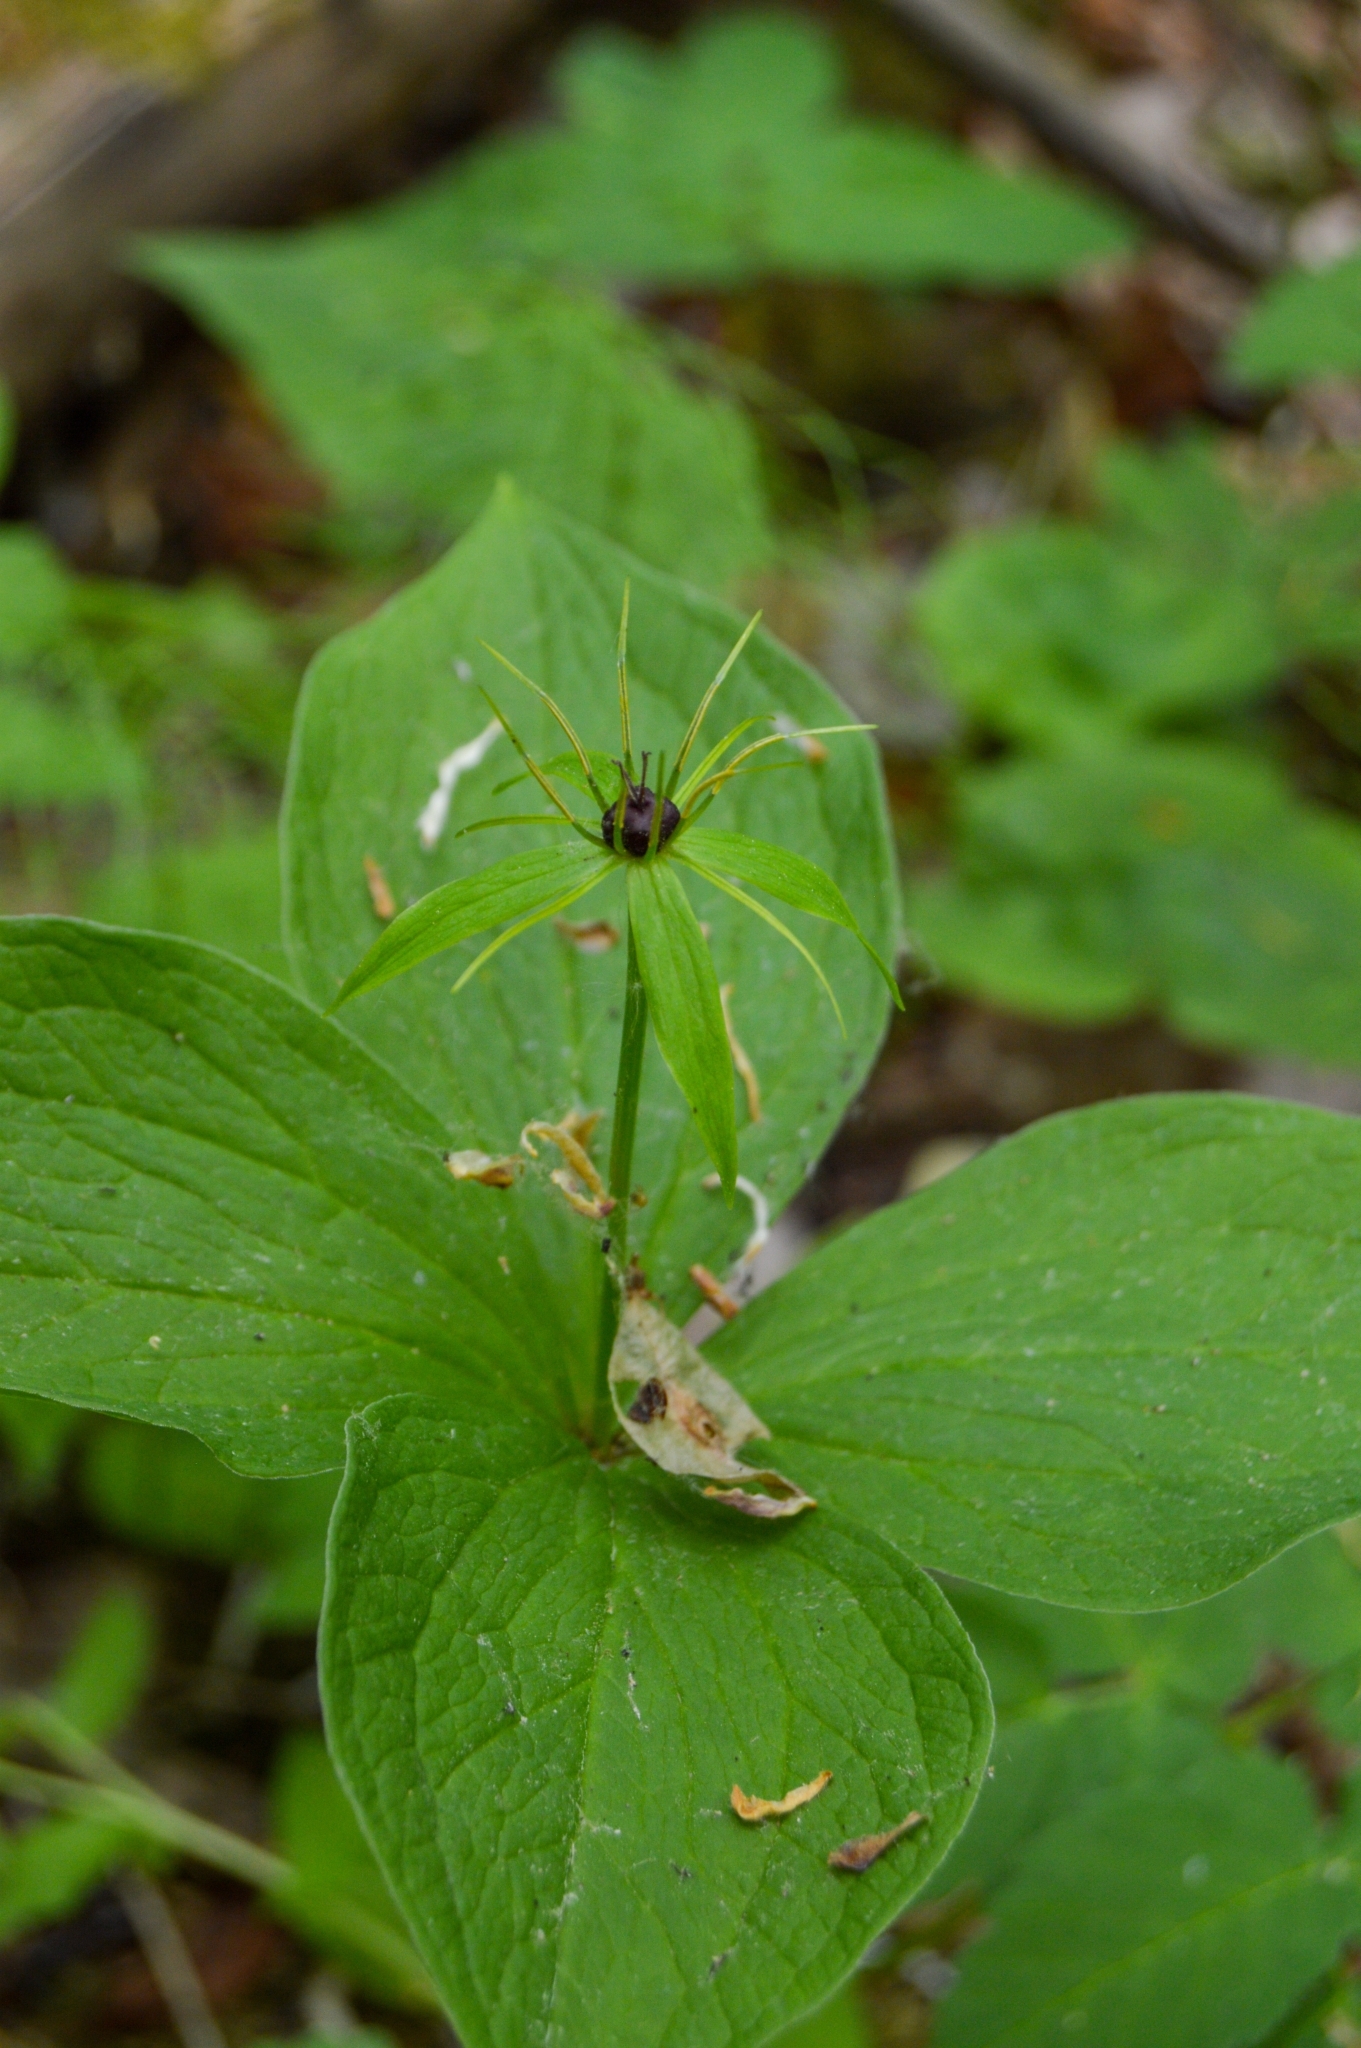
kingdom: Plantae
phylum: Tracheophyta
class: Liliopsida
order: Liliales
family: Melanthiaceae
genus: Paris
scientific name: Paris quadrifolia
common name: Herb-paris
